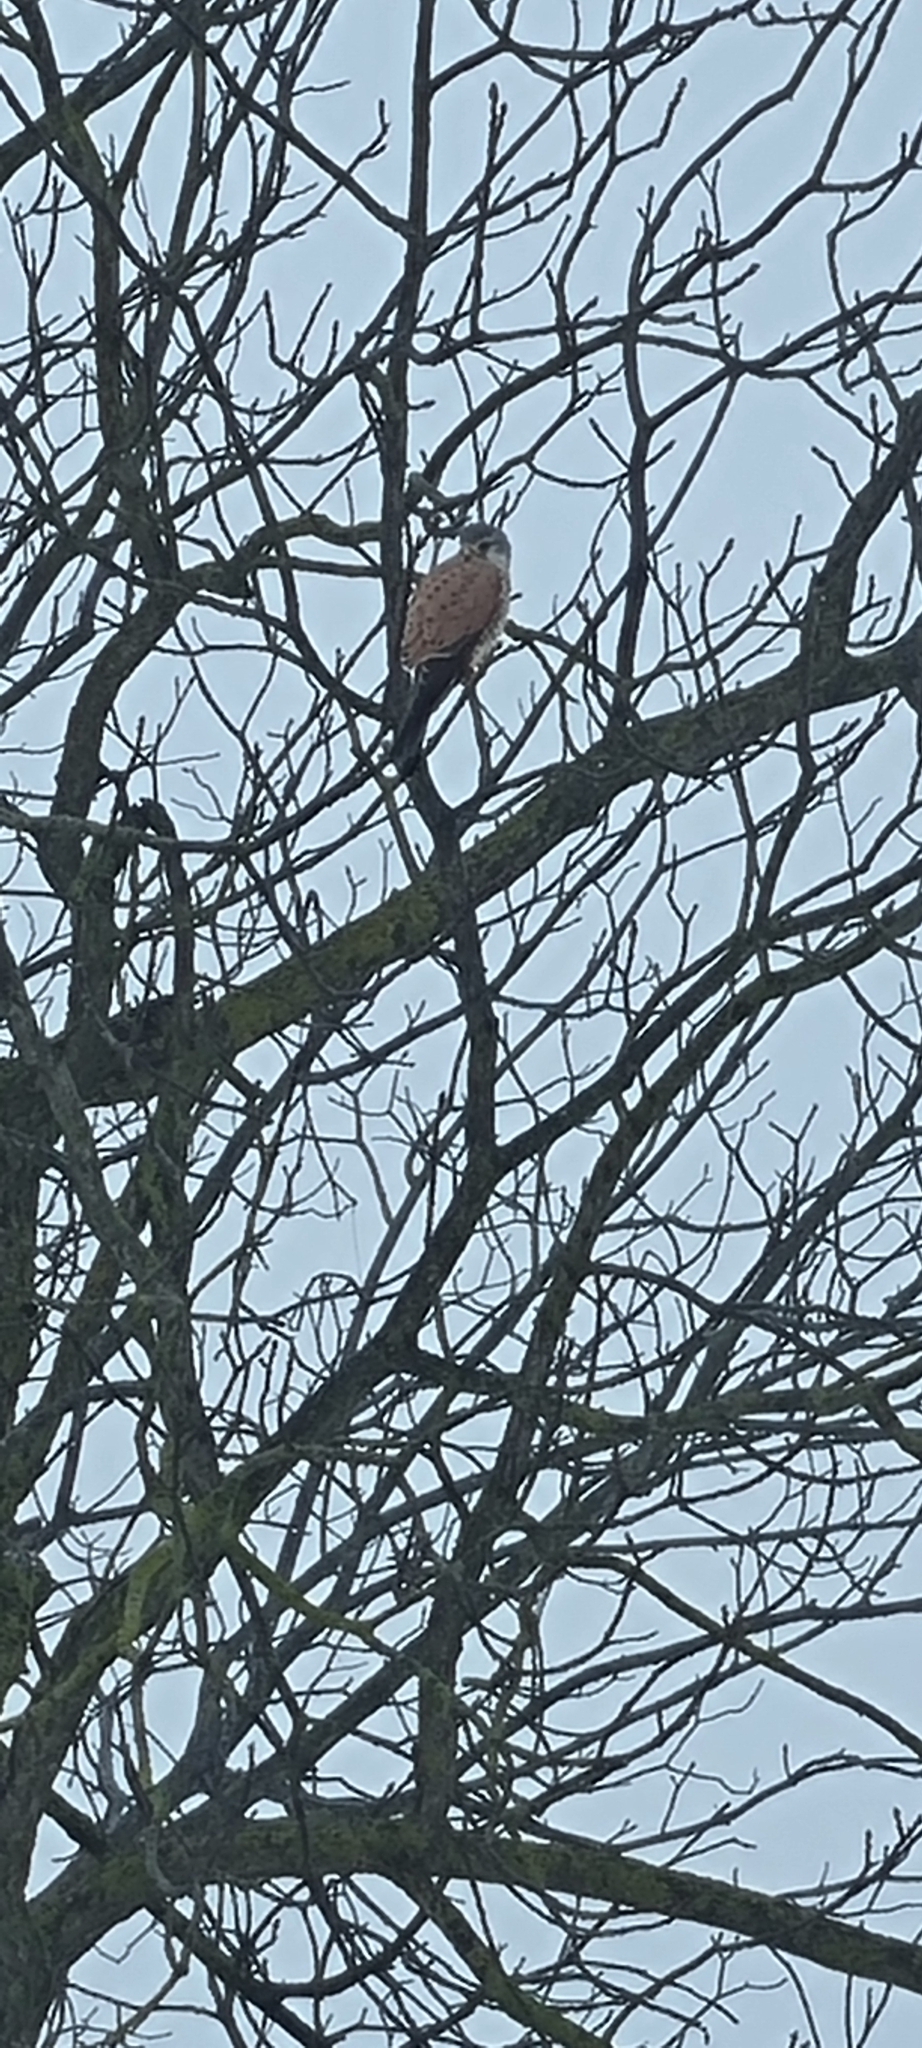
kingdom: Animalia
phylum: Chordata
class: Aves
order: Falconiformes
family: Falconidae
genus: Falco
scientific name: Falco tinnunculus
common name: Common kestrel
